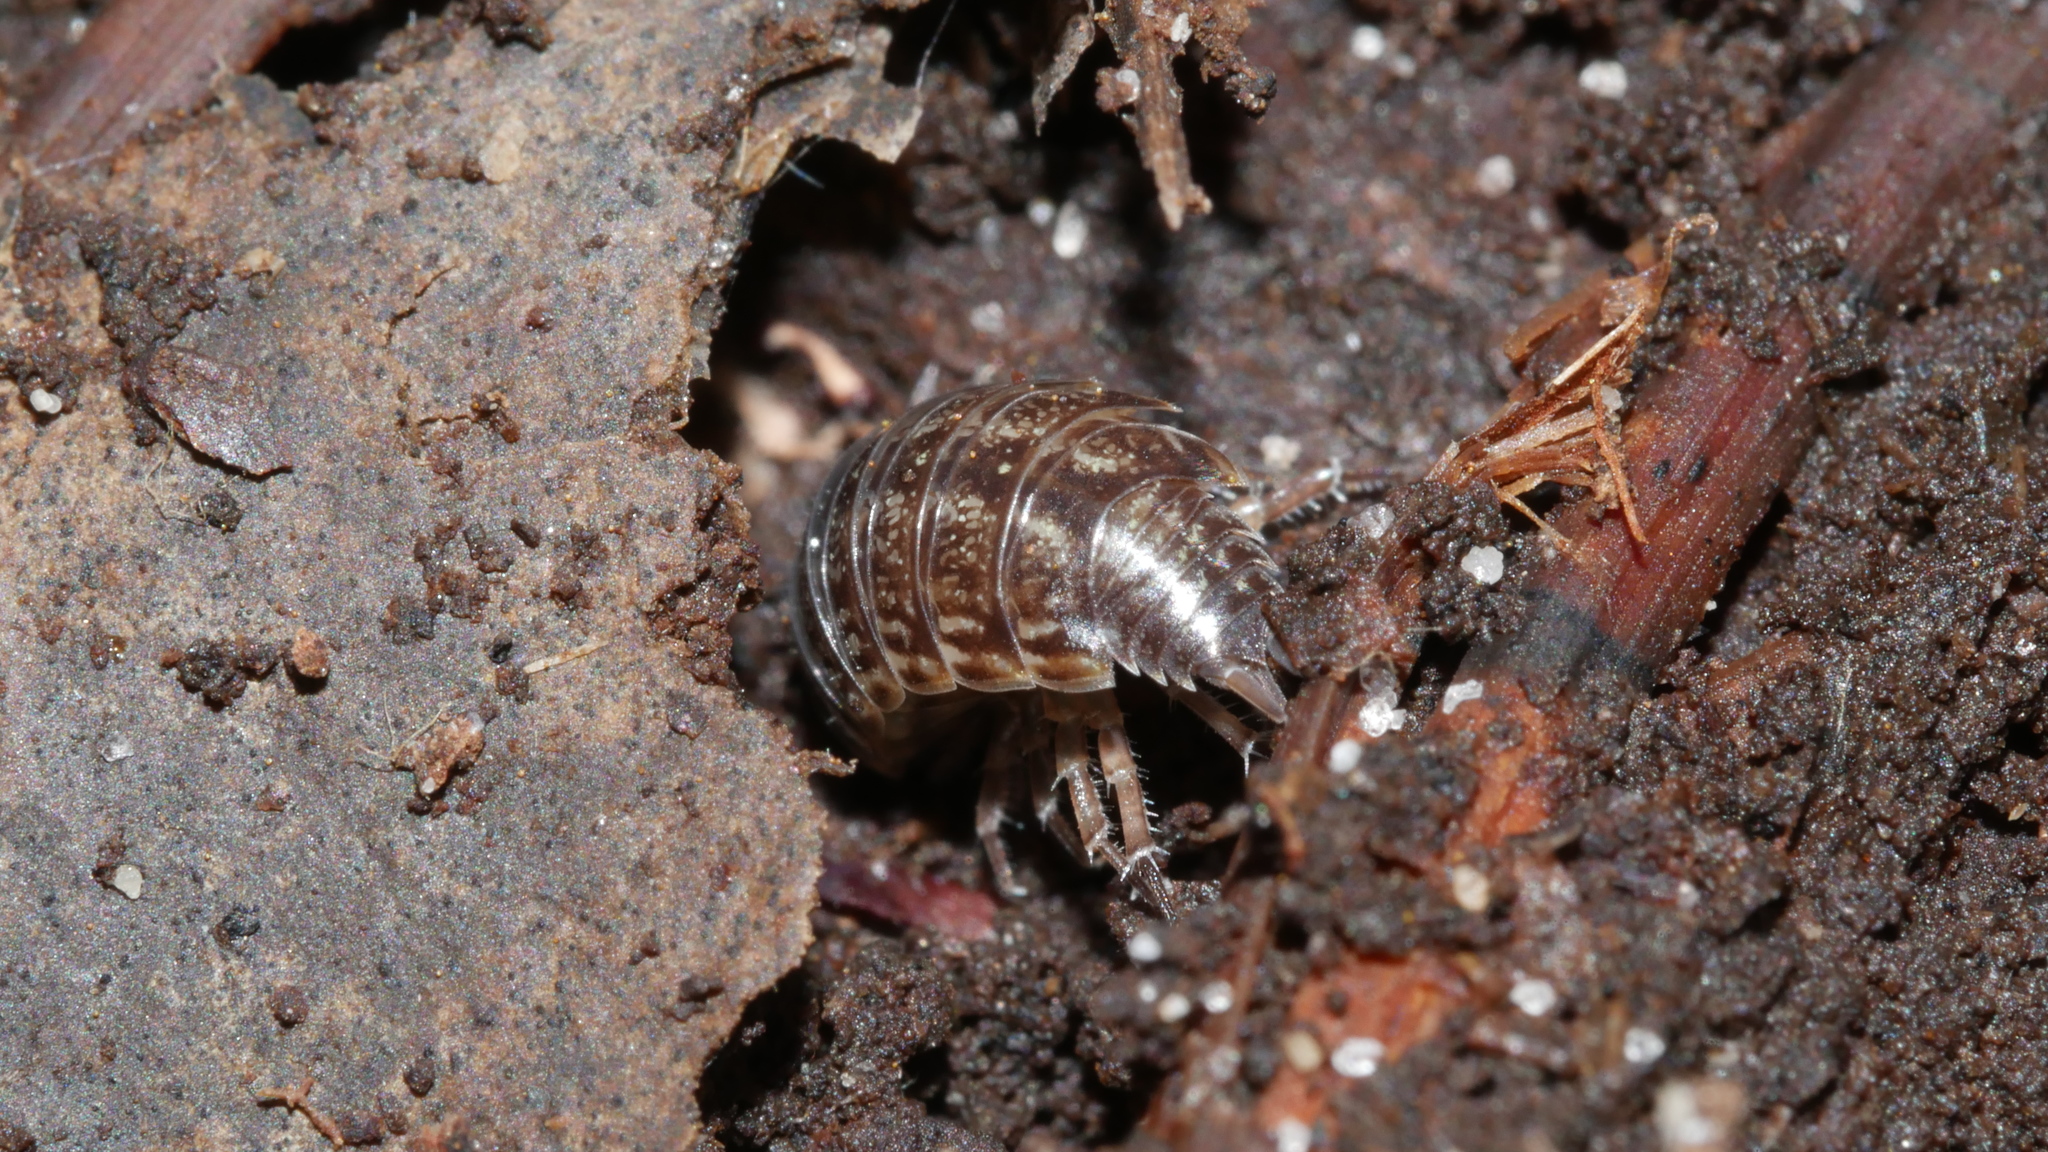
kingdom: Animalia
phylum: Arthropoda
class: Malacostraca
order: Isopoda
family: Philosciidae
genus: Philoscia
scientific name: Philoscia muscorum
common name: Common striped woodlouse
